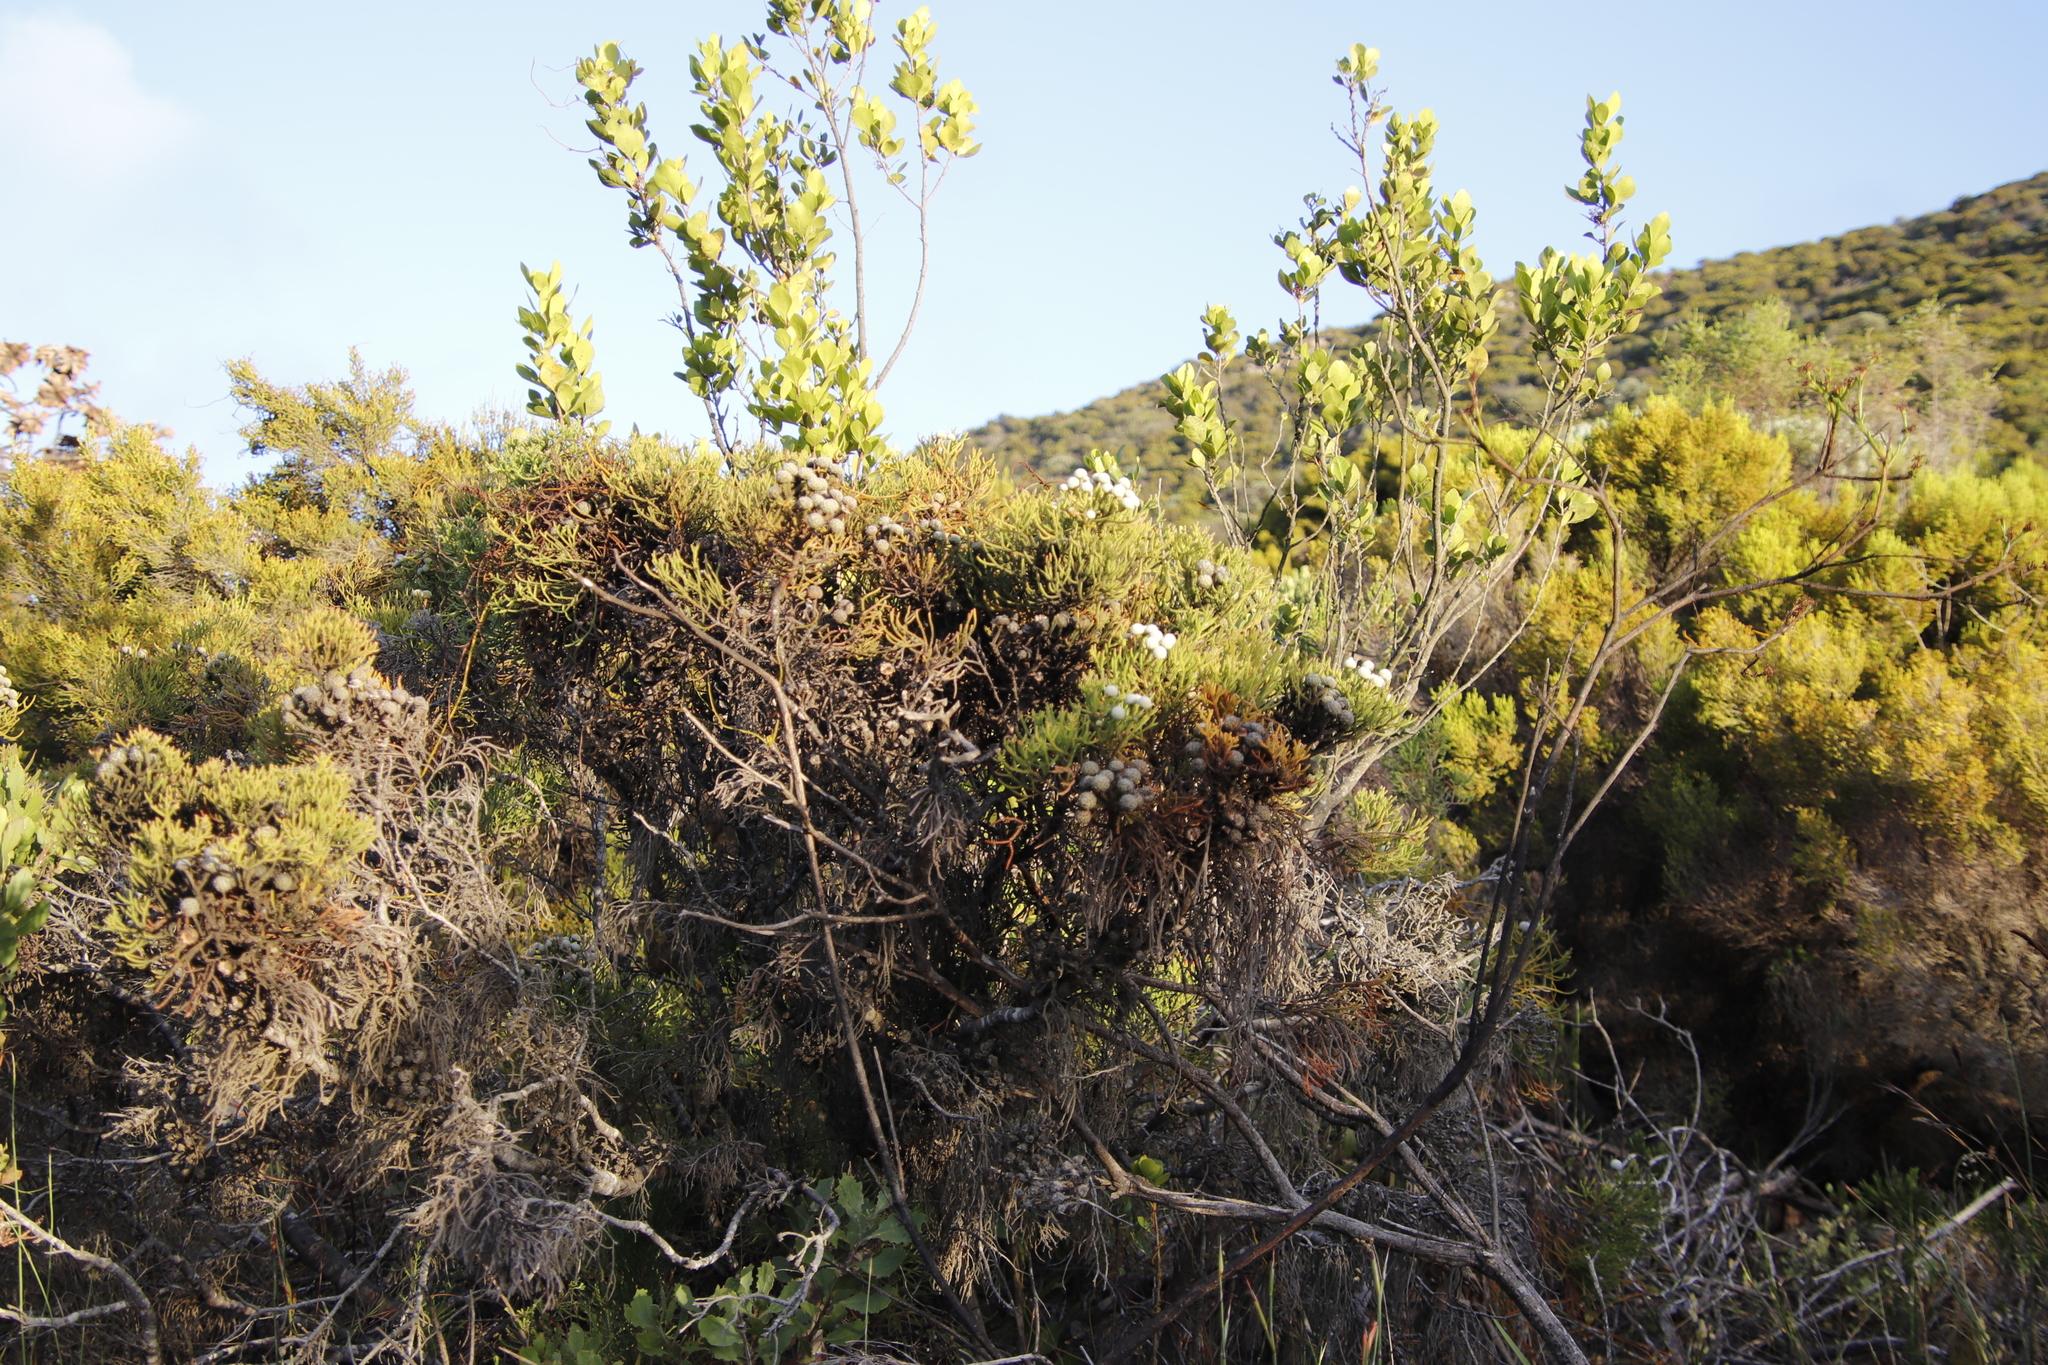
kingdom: Plantae
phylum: Tracheophyta
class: Magnoliopsida
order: Bruniales
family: Bruniaceae
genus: Brunia
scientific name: Brunia noduliflora
